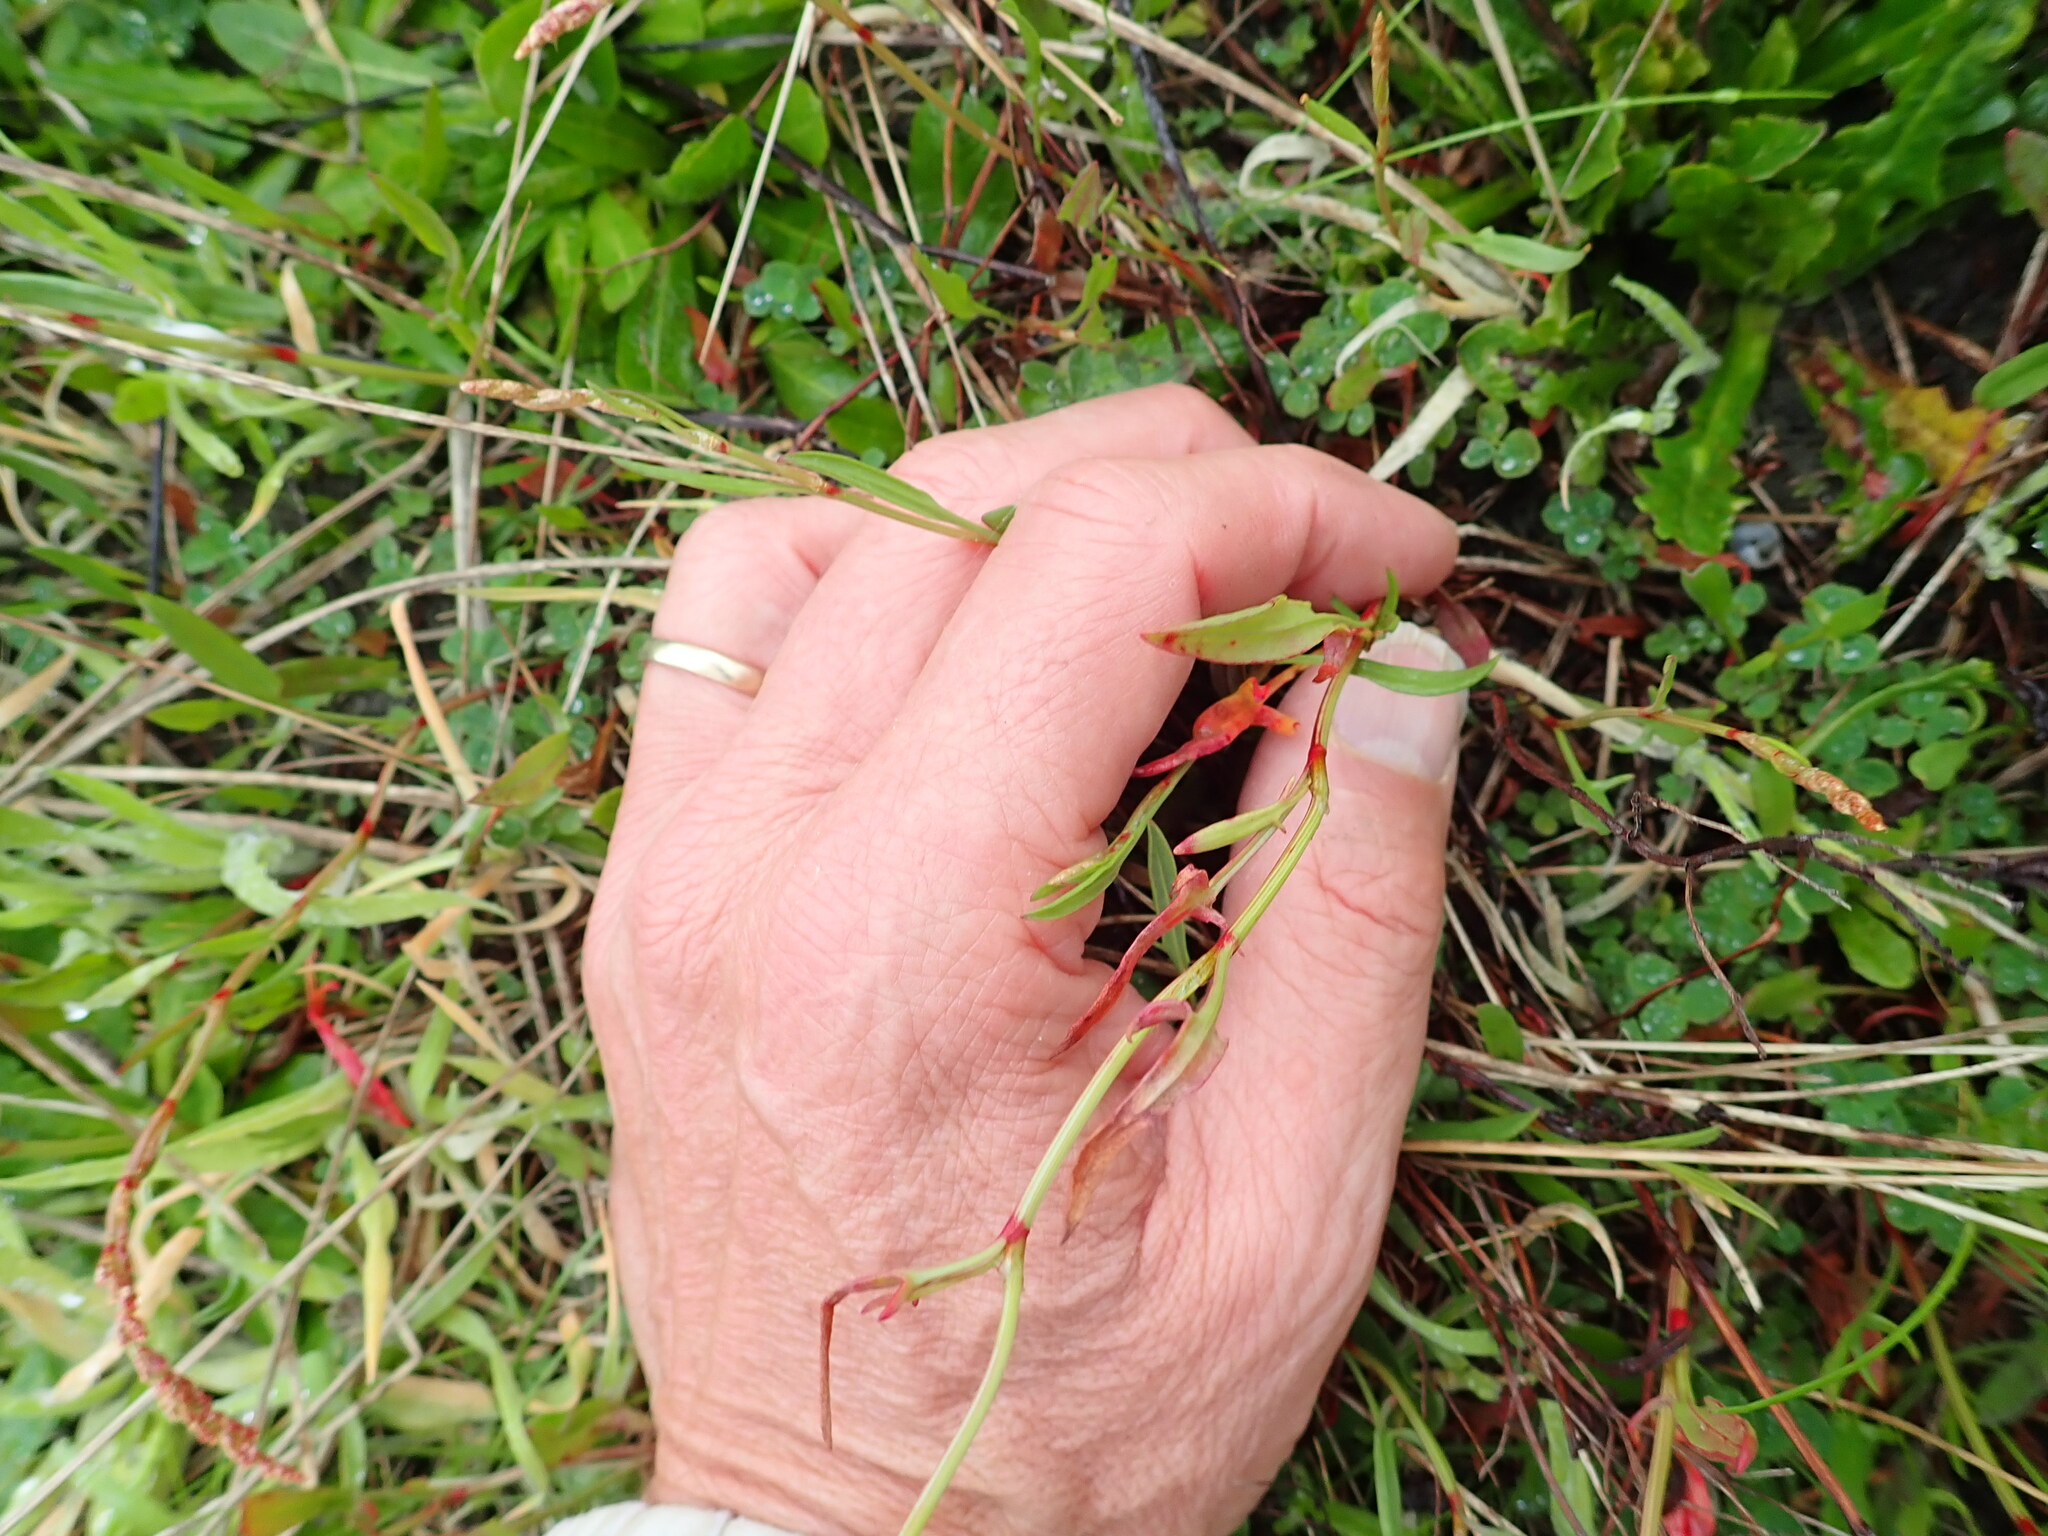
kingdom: Plantae
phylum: Tracheophyta
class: Magnoliopsida
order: Caryophyllales
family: Polygonaceae
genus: Rumex
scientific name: Rumex acetosella
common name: Common sheep sorrel
